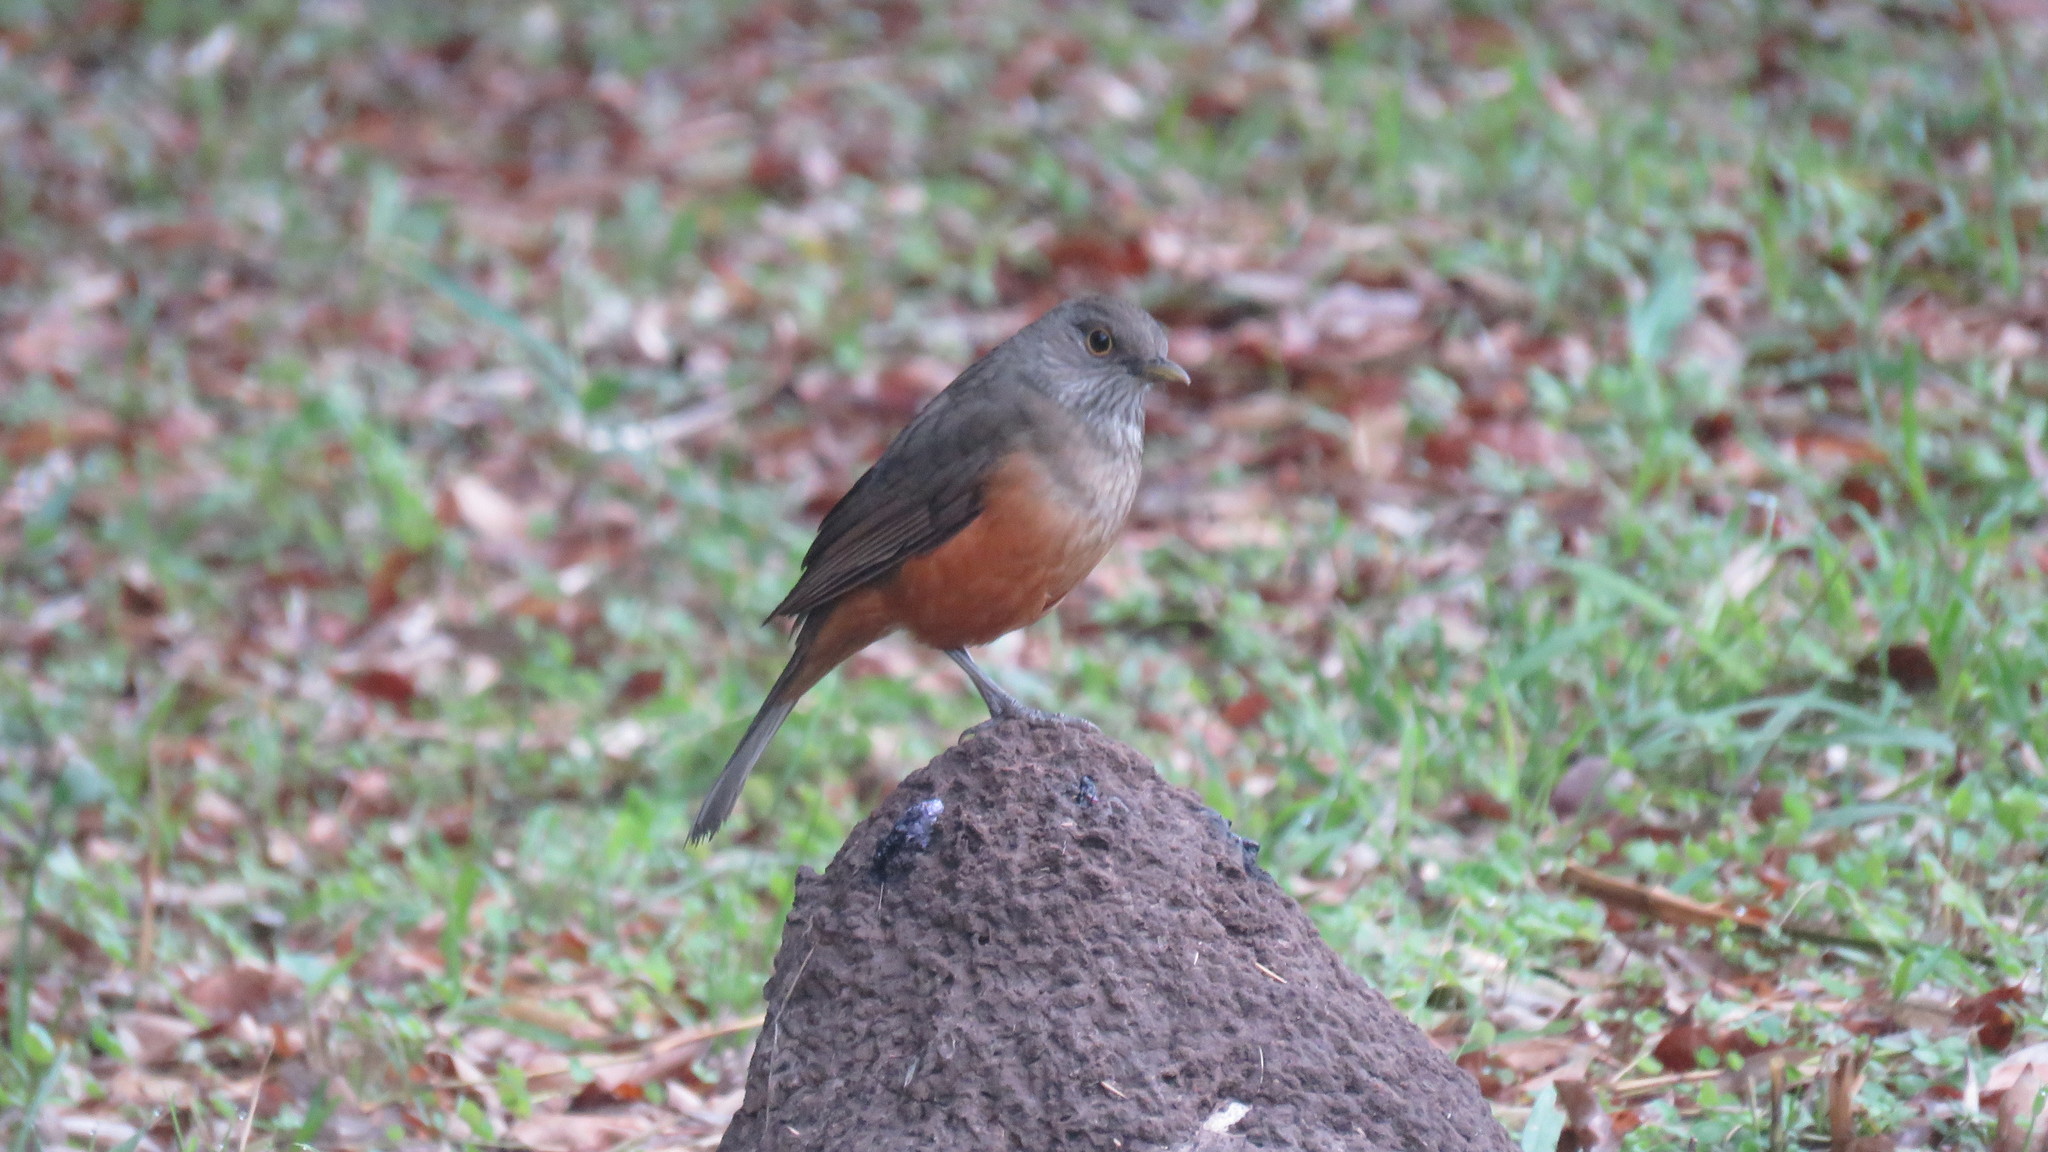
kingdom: Animalia
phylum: Chordata
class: Aves
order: Passeriformes
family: Turdidae
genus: Turdus
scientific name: Turdus rufiventris
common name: Rufous-bellied thrush
